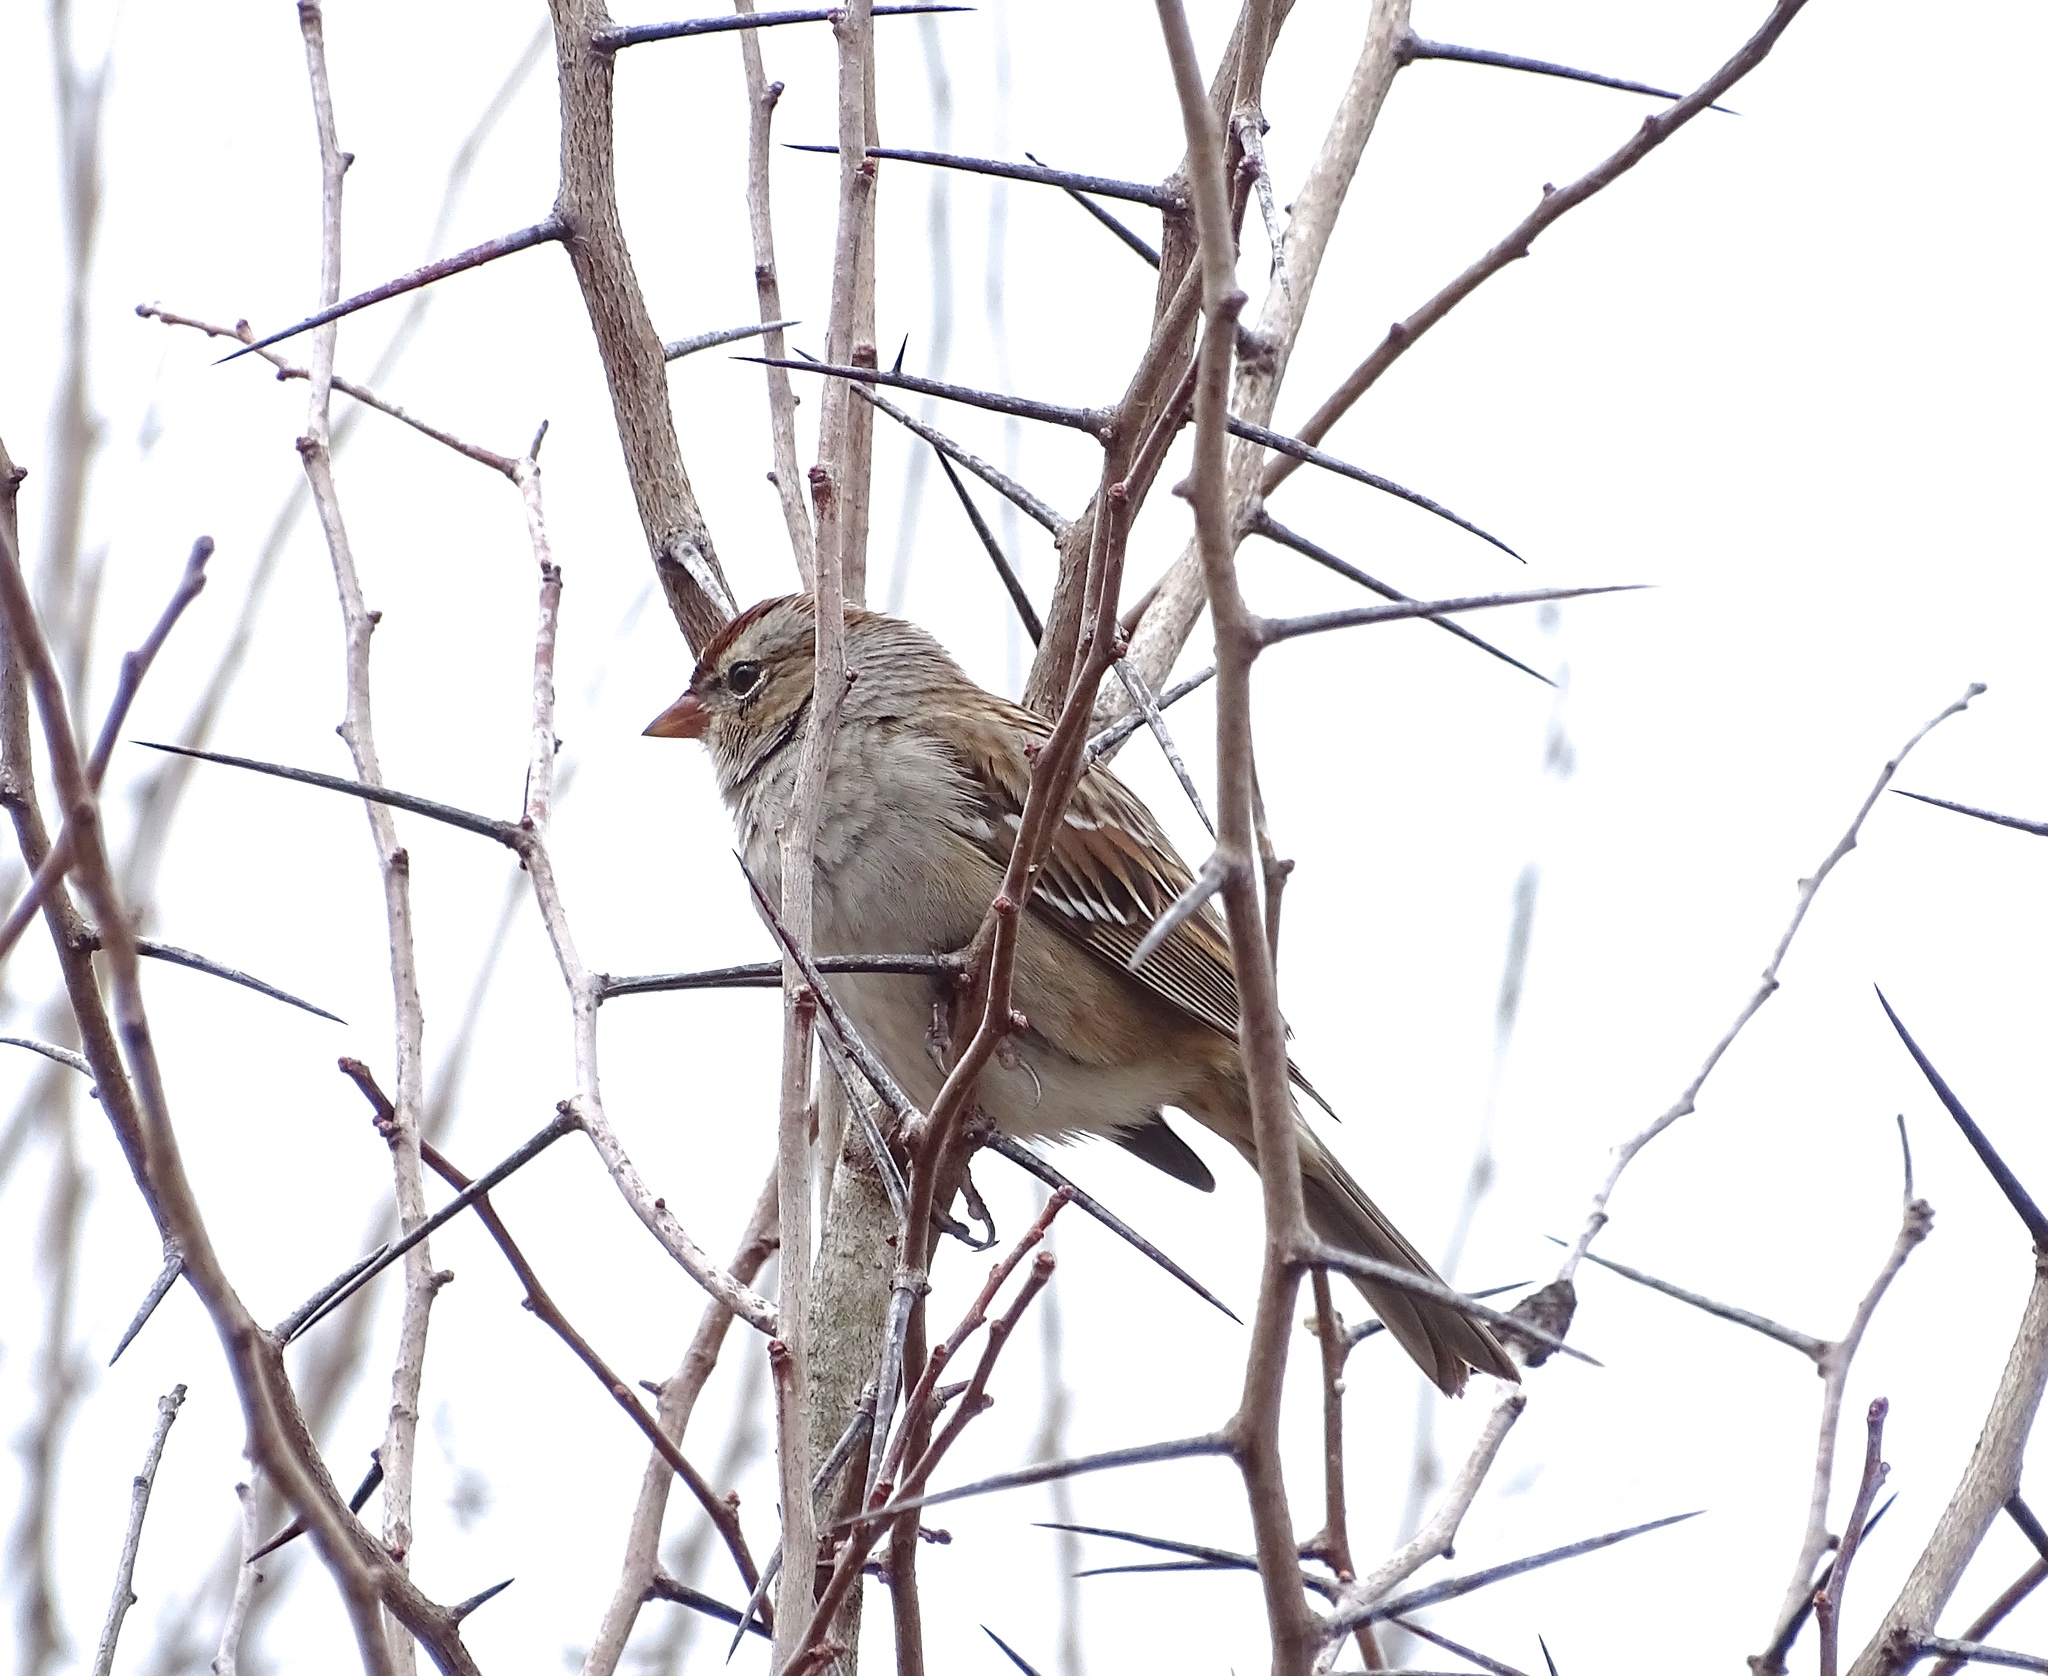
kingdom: Animalia
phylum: Chordata
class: Aves
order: Passeriformes
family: Passerellidae
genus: Zonotrichia
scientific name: Zonotrichia leucophrys
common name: White-crowned sparrow
